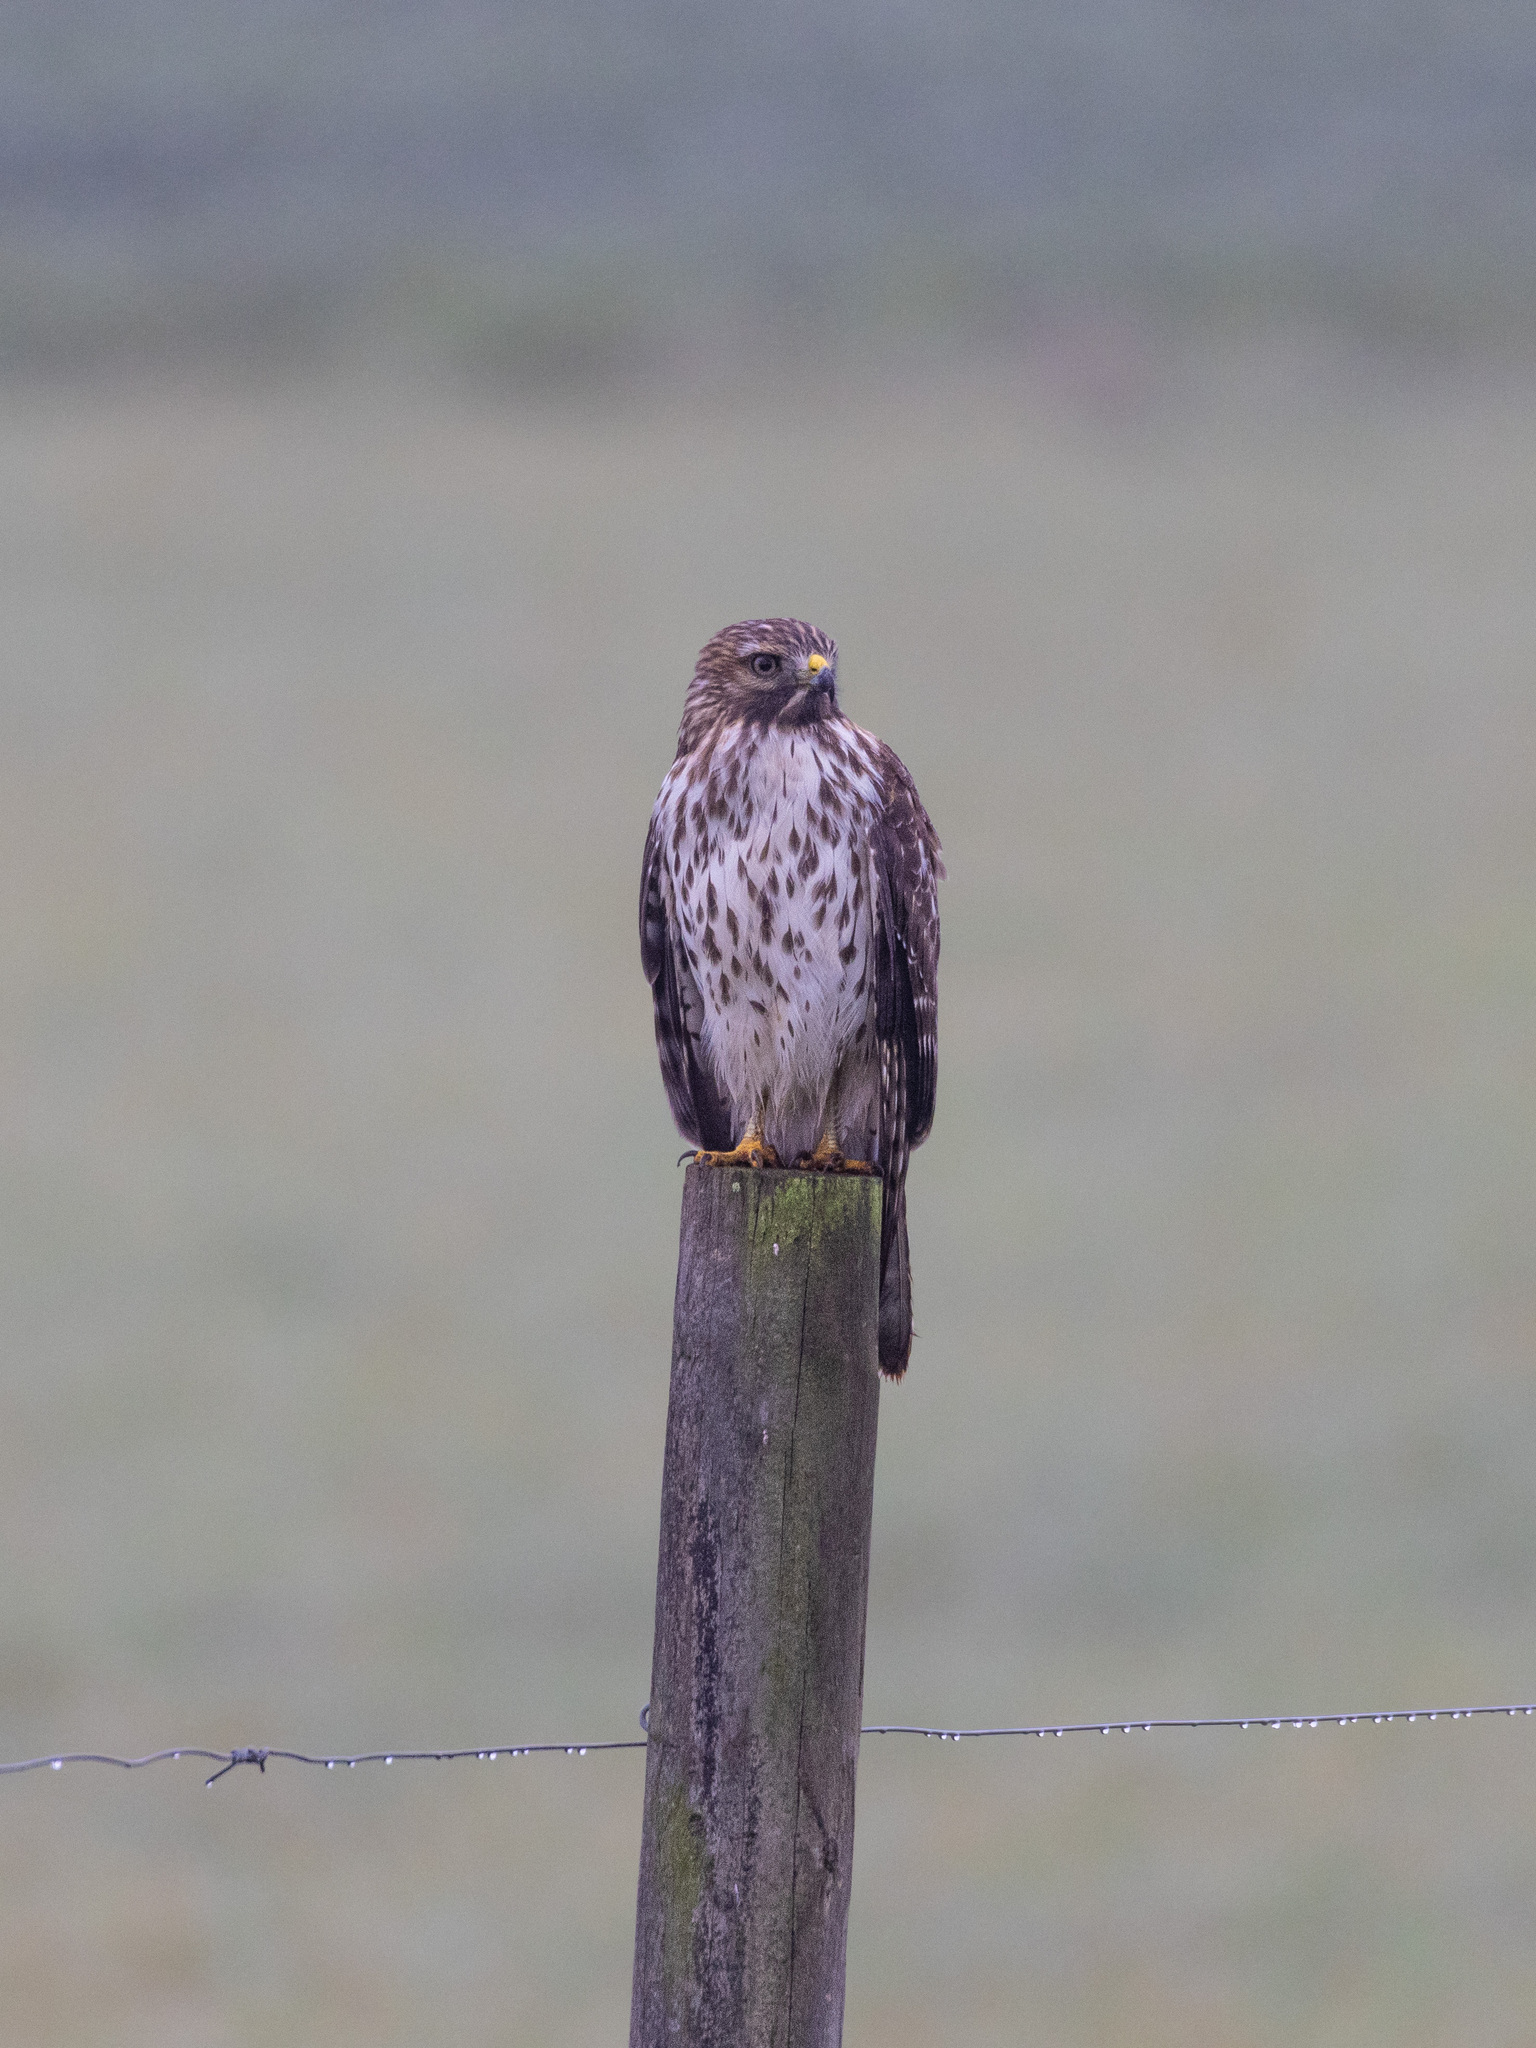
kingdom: Animalia
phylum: Chordata
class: Aves
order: Accipitriformes
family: Accipitridae
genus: Buteo
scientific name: Buteo lineatus
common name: Red-shouldered hawk
